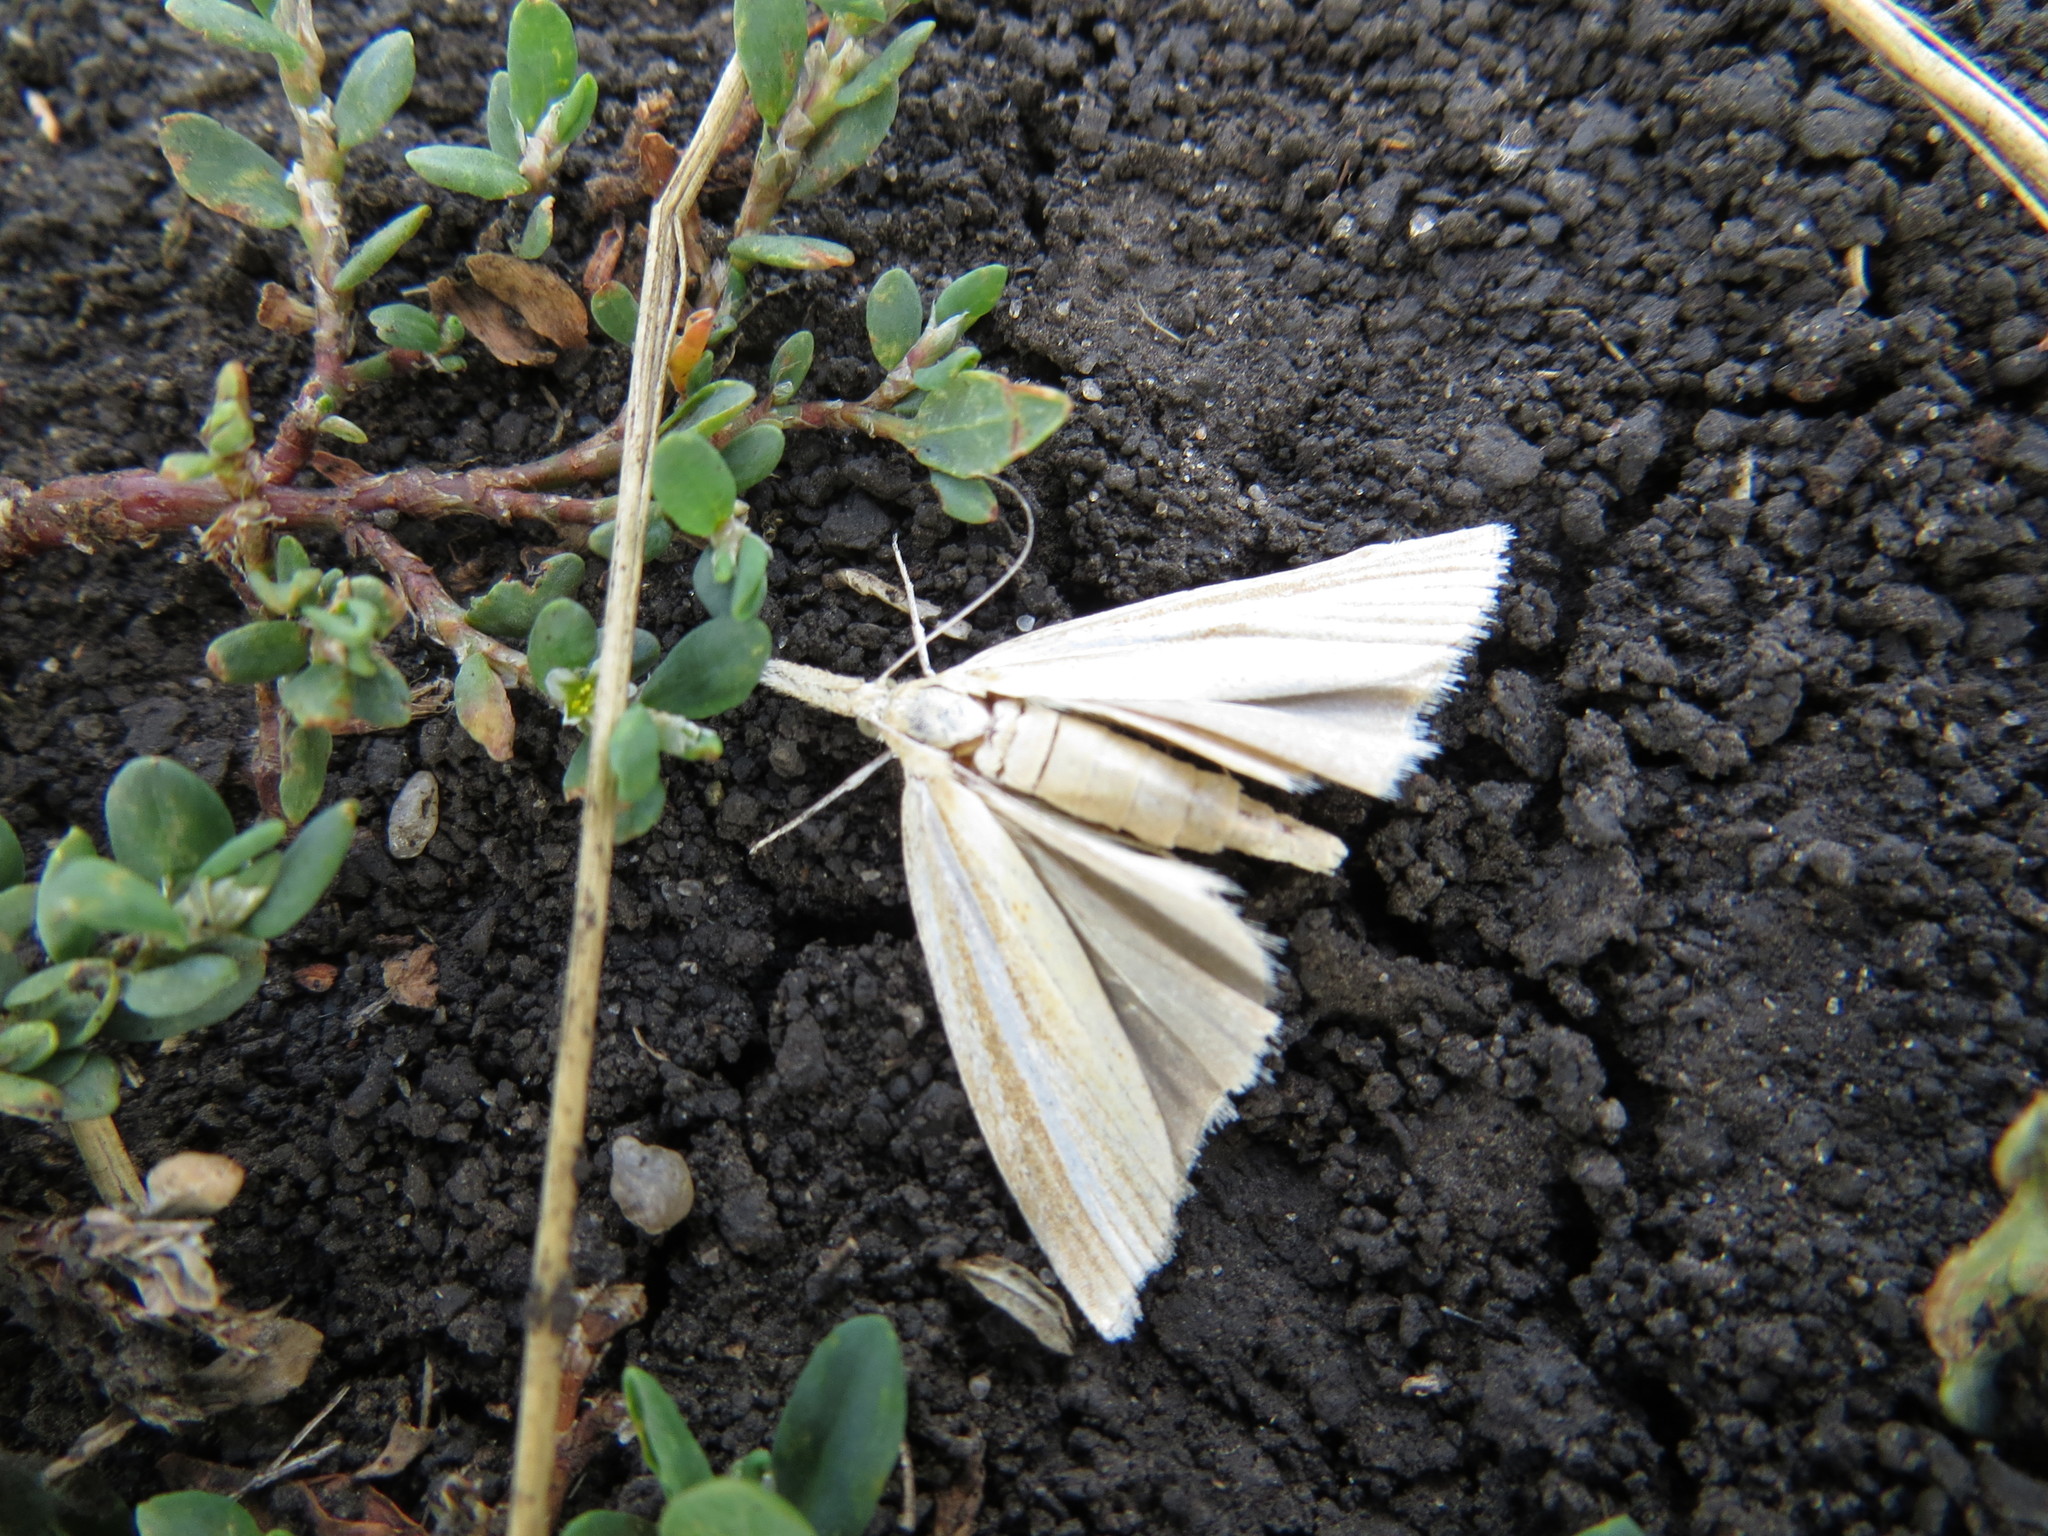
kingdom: Animalia
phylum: Arthropoda
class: Insecta
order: Lepidoptera
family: Crambidae
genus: Agriphila
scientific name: Agriphila tristellus
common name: Common grass-veneer
